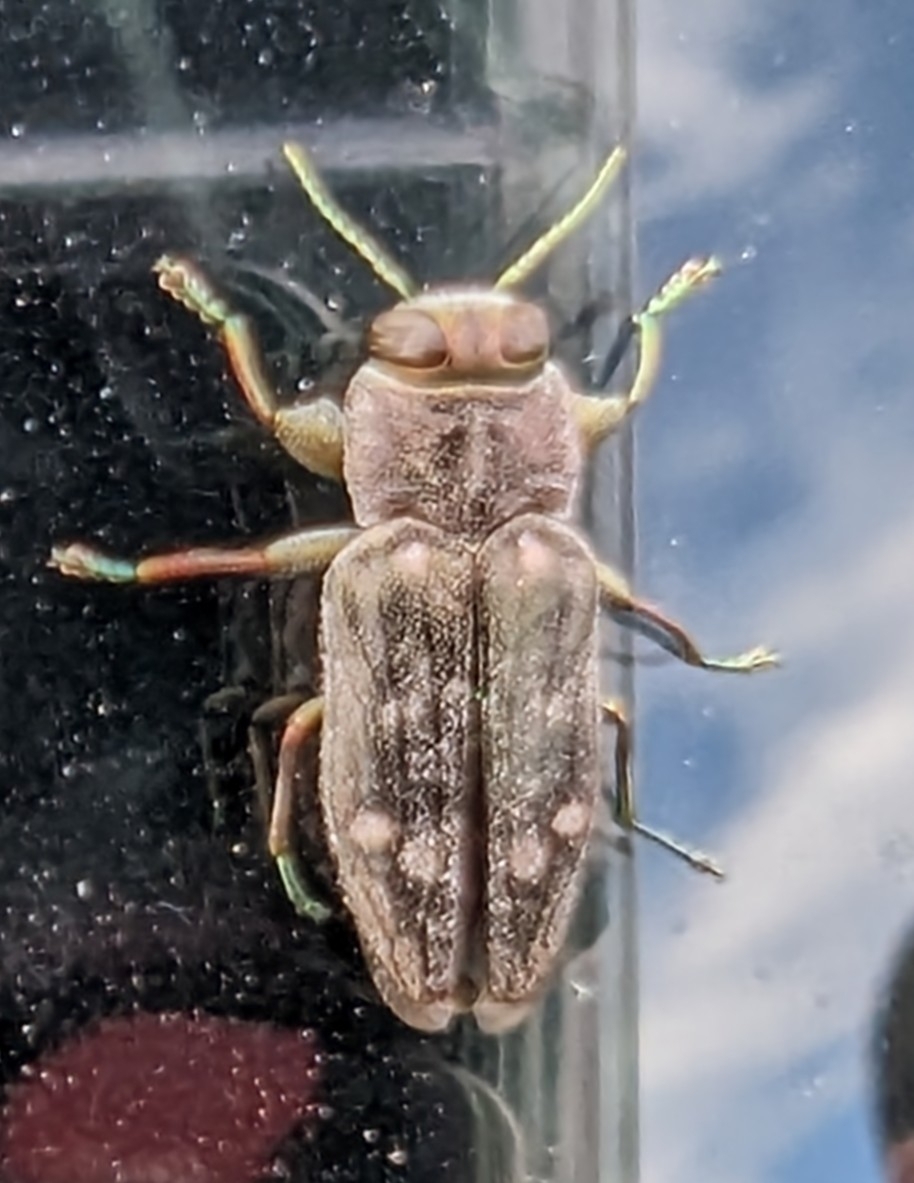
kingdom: Animalia
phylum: Arthropoda
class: Insecta
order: Coleoptera
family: Buprestidae
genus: Chrysobothris
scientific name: Chrysobothris viridiceps
